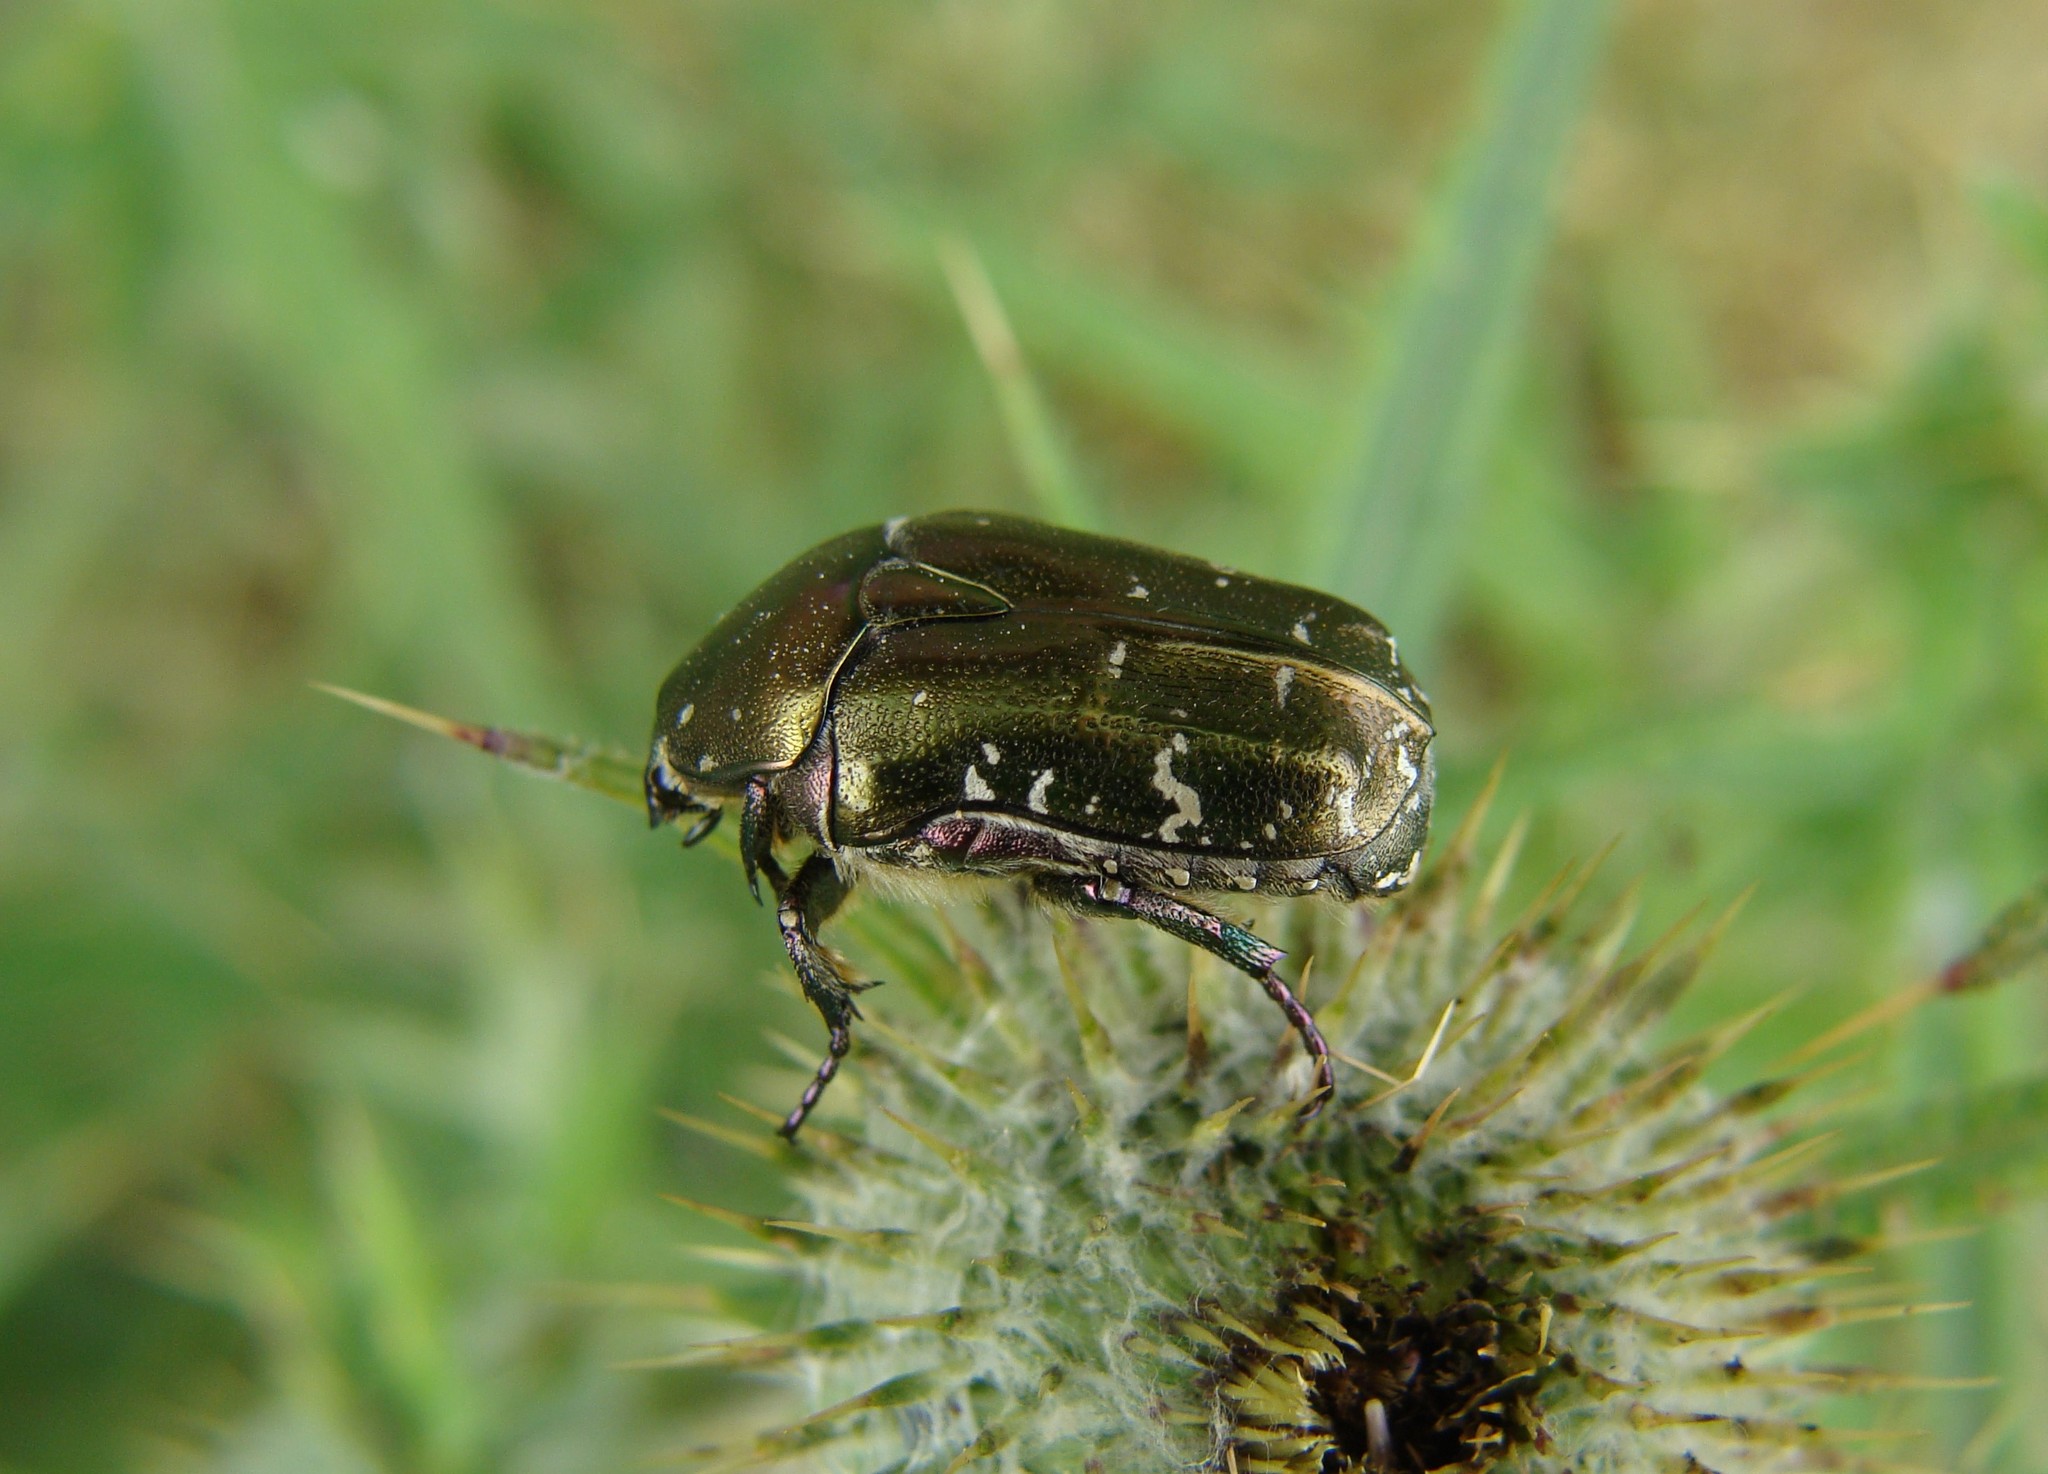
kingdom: Animalia
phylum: Arthropoda
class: Insecta
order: Coleoptera
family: Scarabaeidae
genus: Protaetia
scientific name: Protaetia cuprea
